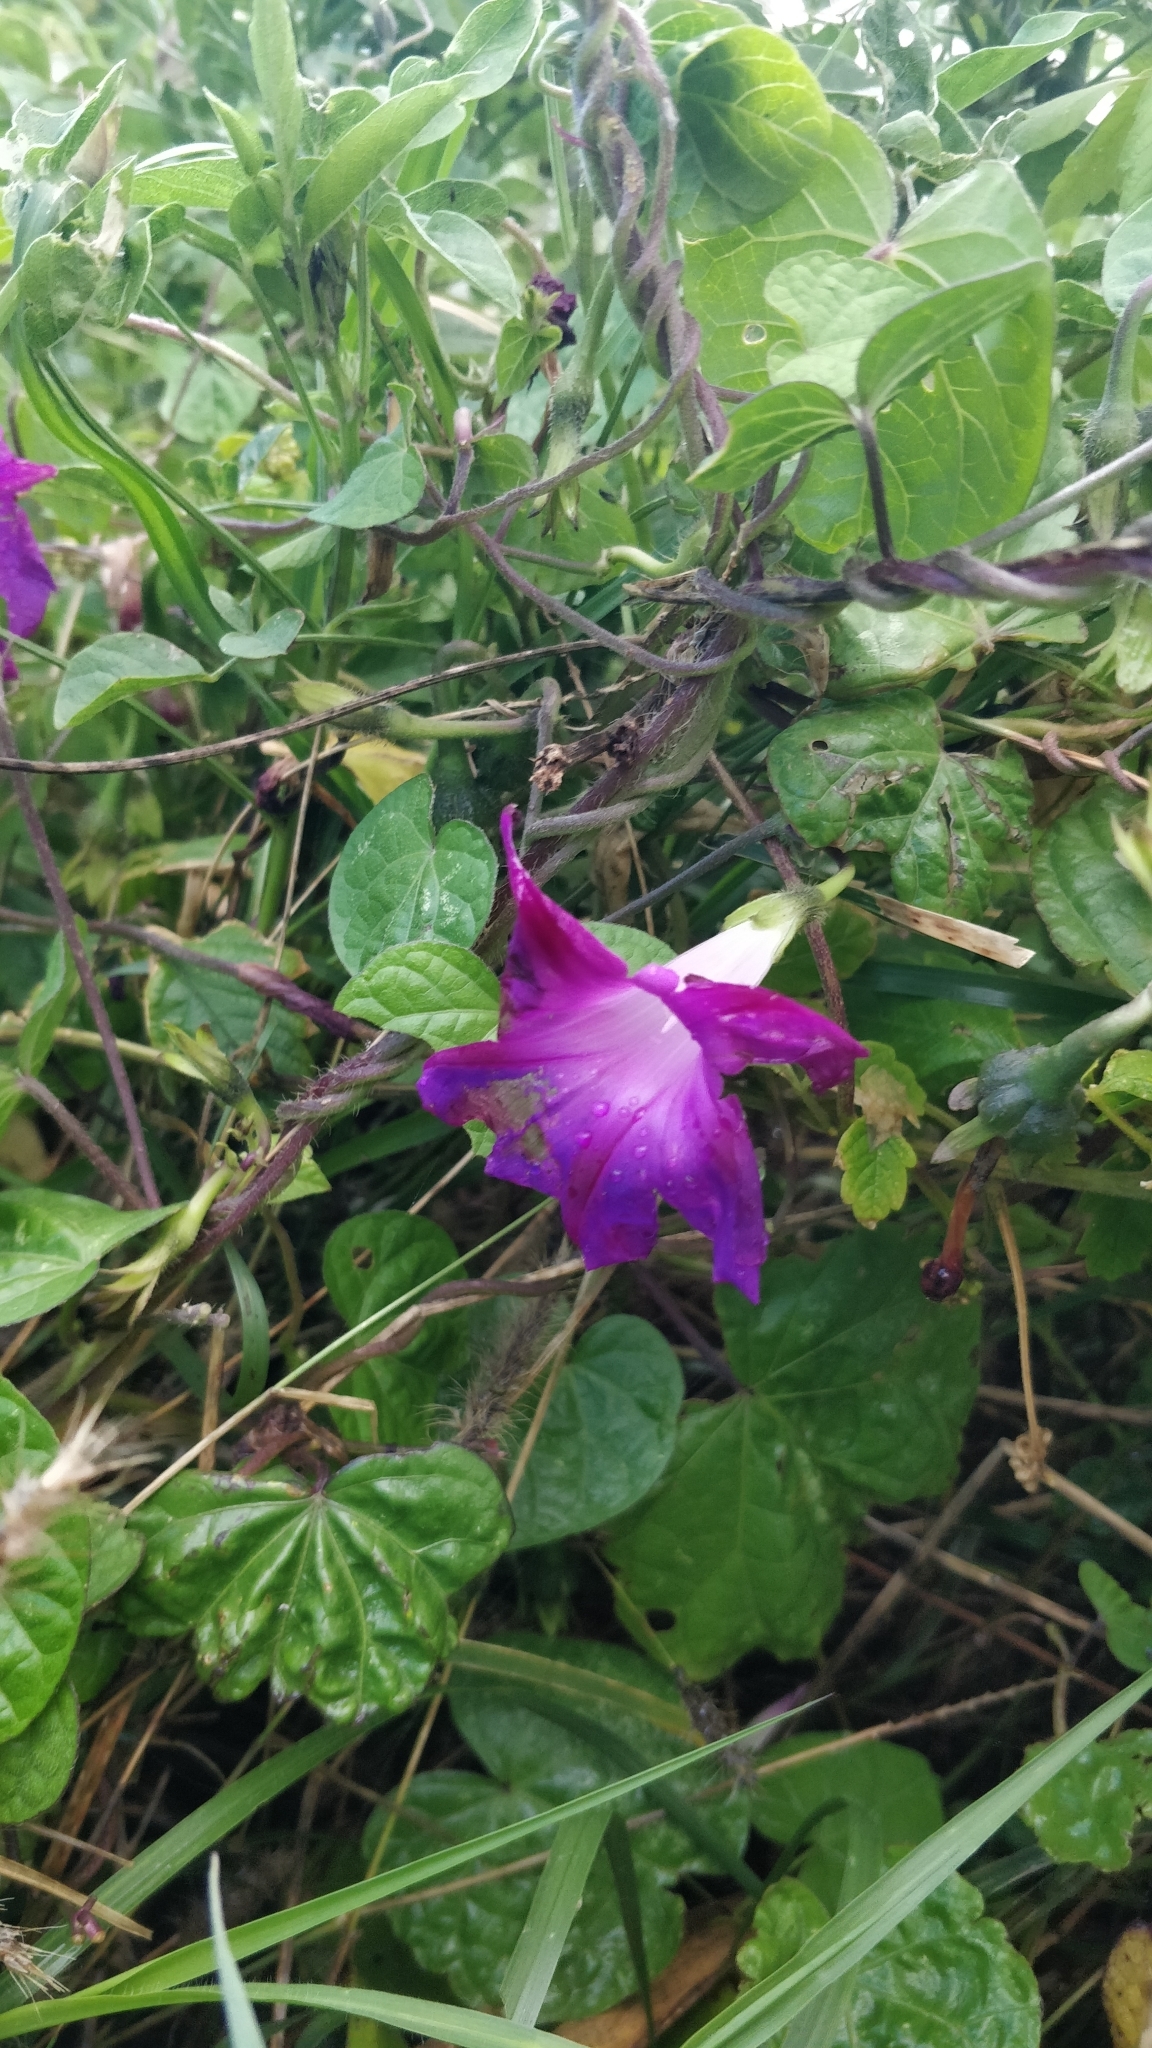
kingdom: Plantae
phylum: Tracheophyta
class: Magnoliopsida
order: Solanales
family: Convolvulaceae
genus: Ipomoea
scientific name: Ipomoea purpurea
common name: Common morning-glory
